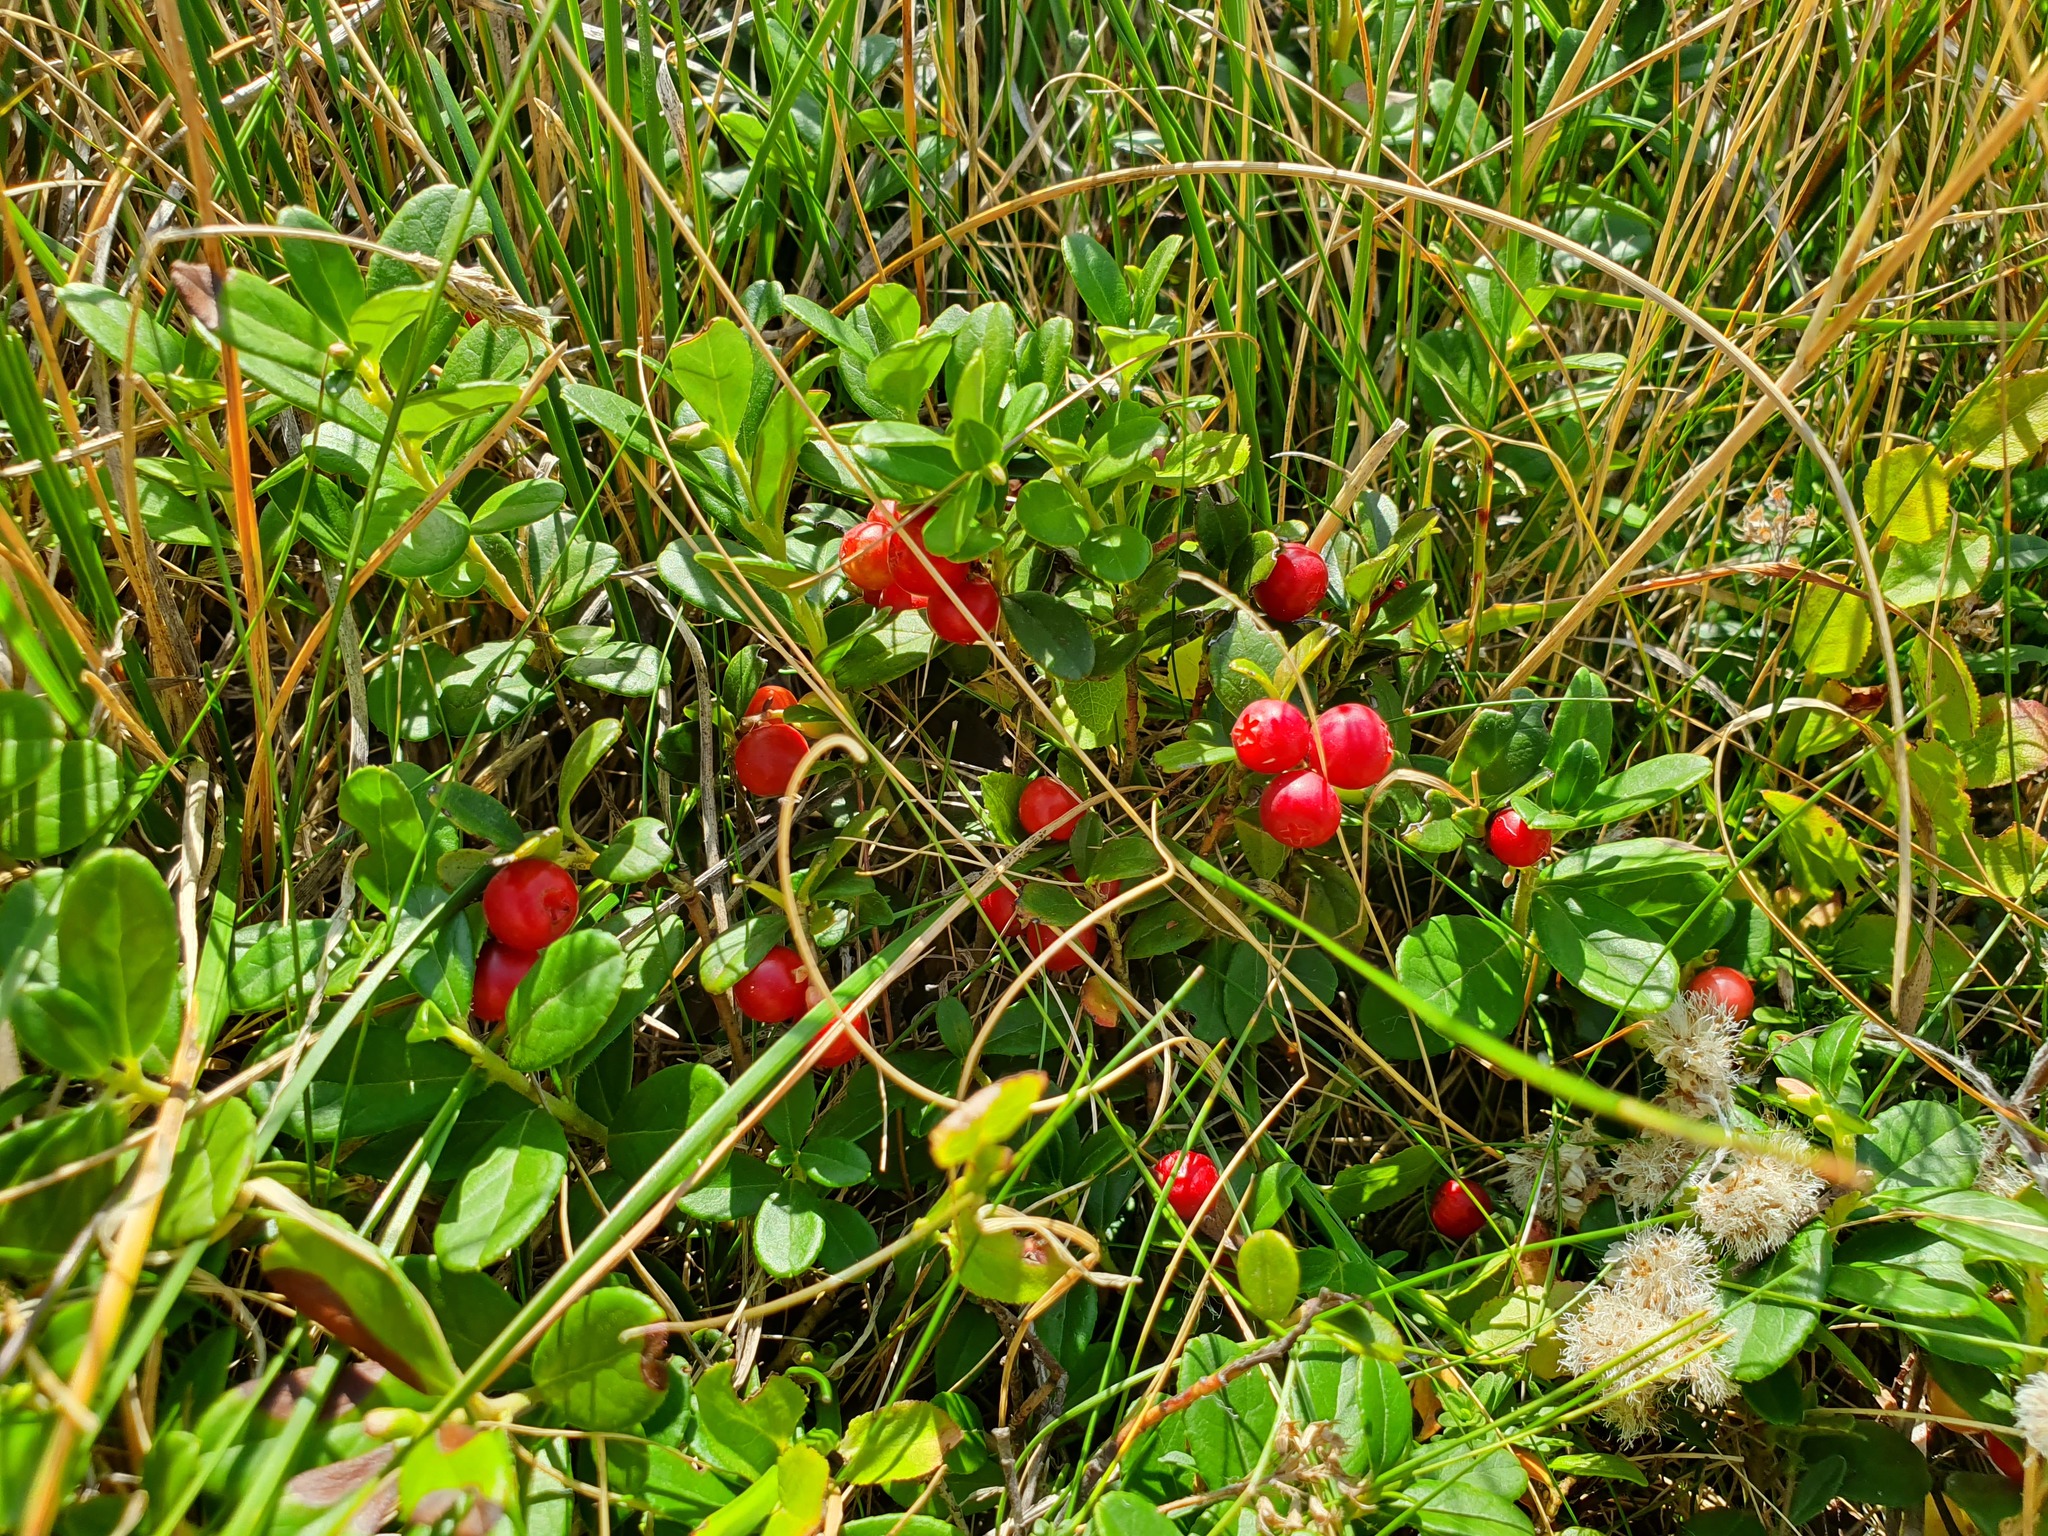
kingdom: Plantae
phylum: Tracheophyta
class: Magnoliopsida
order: Ericales
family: Ericaceae
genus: Vaccinium
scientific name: Vaccinium vitis-idaea
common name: Cowberry
